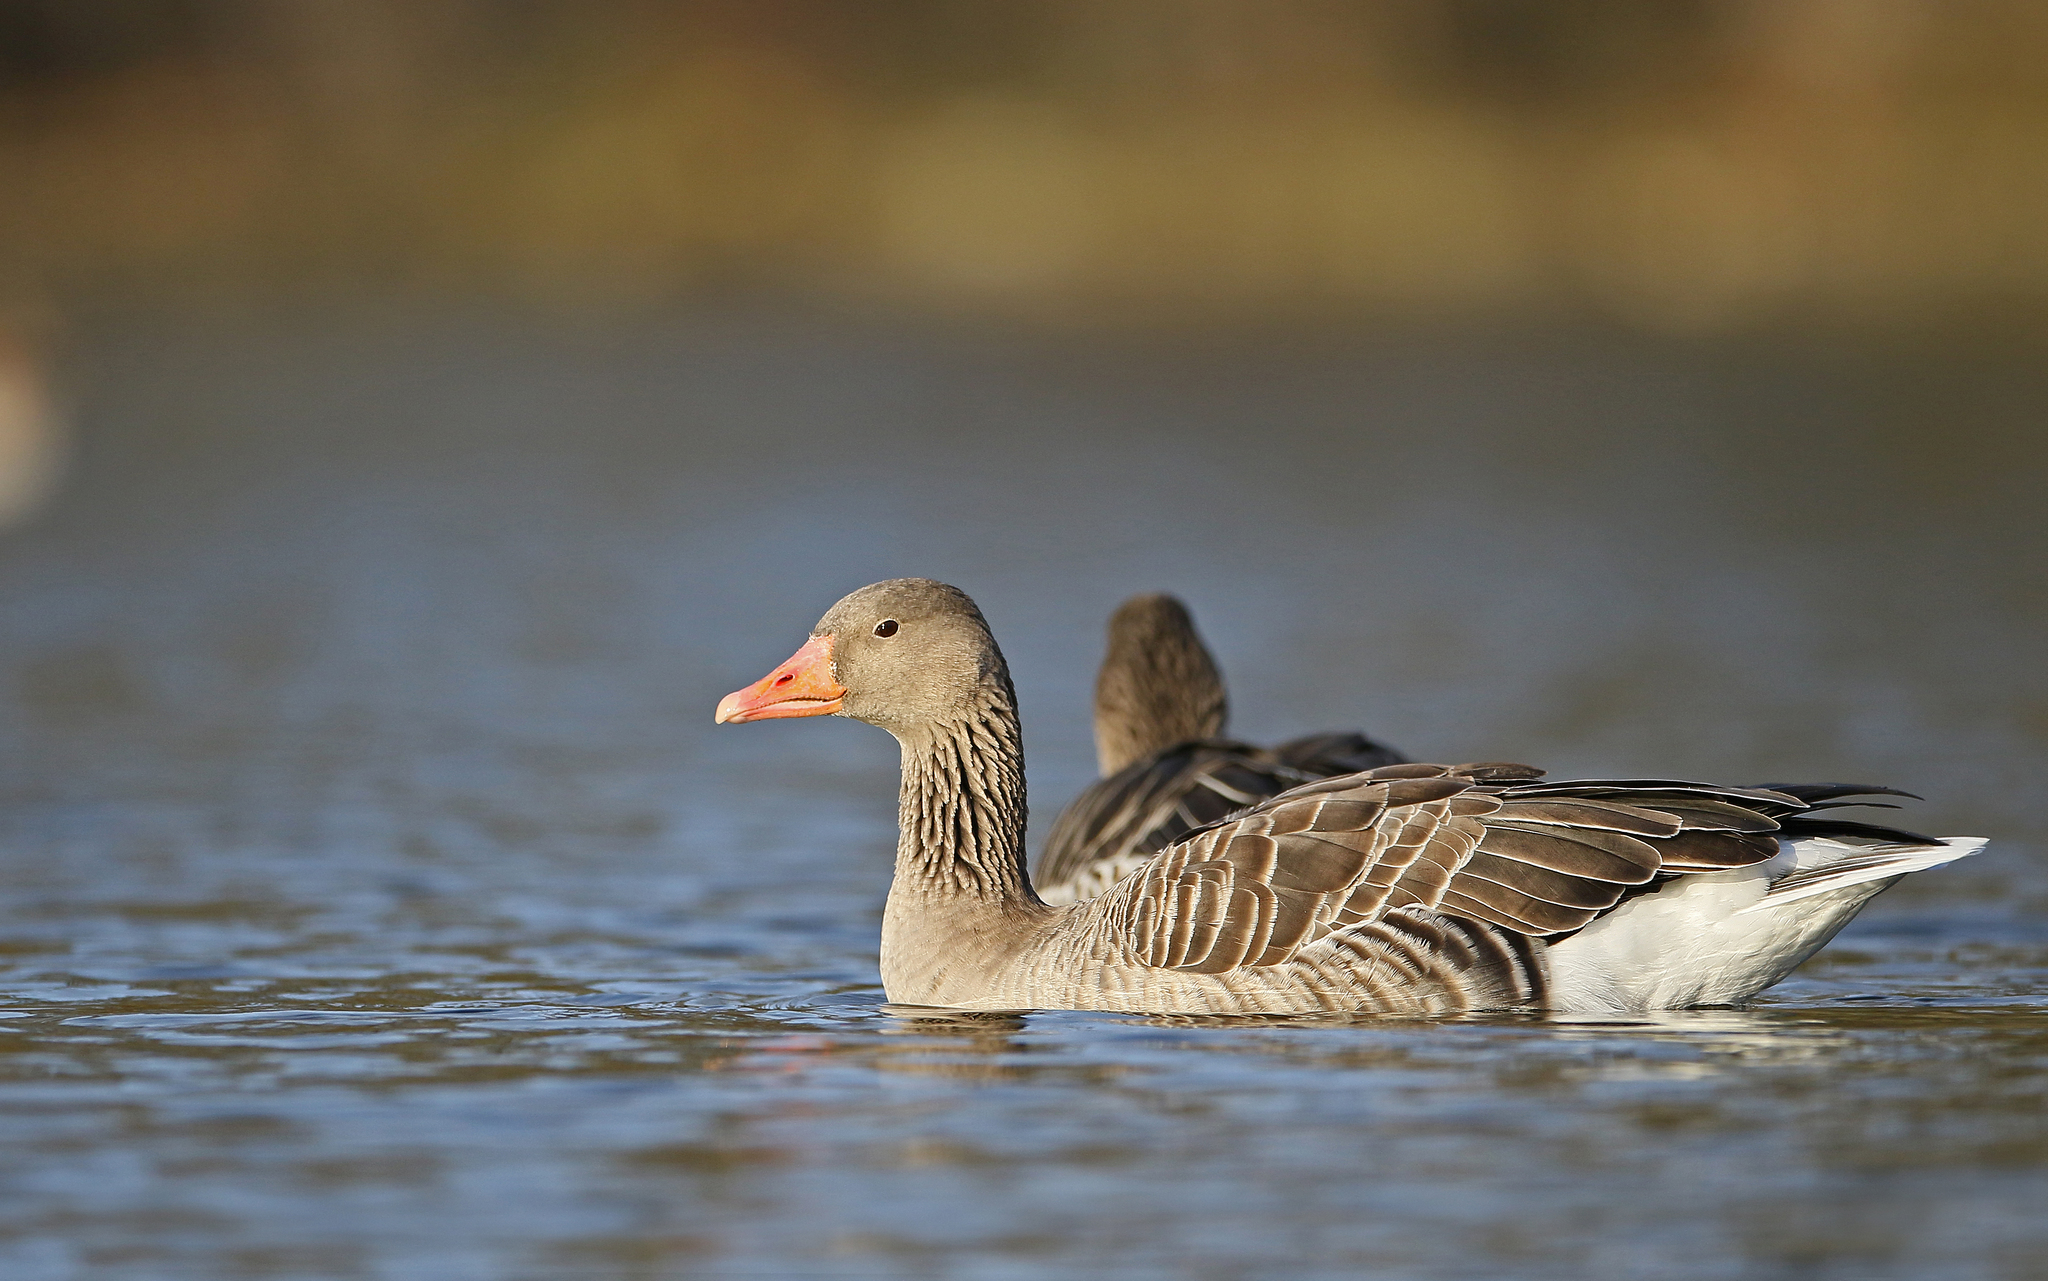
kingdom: Animalia
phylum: Chordata
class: Aves
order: Anseriformes
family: Anatidae
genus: Anser
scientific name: Anser anser
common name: Greylag goose
